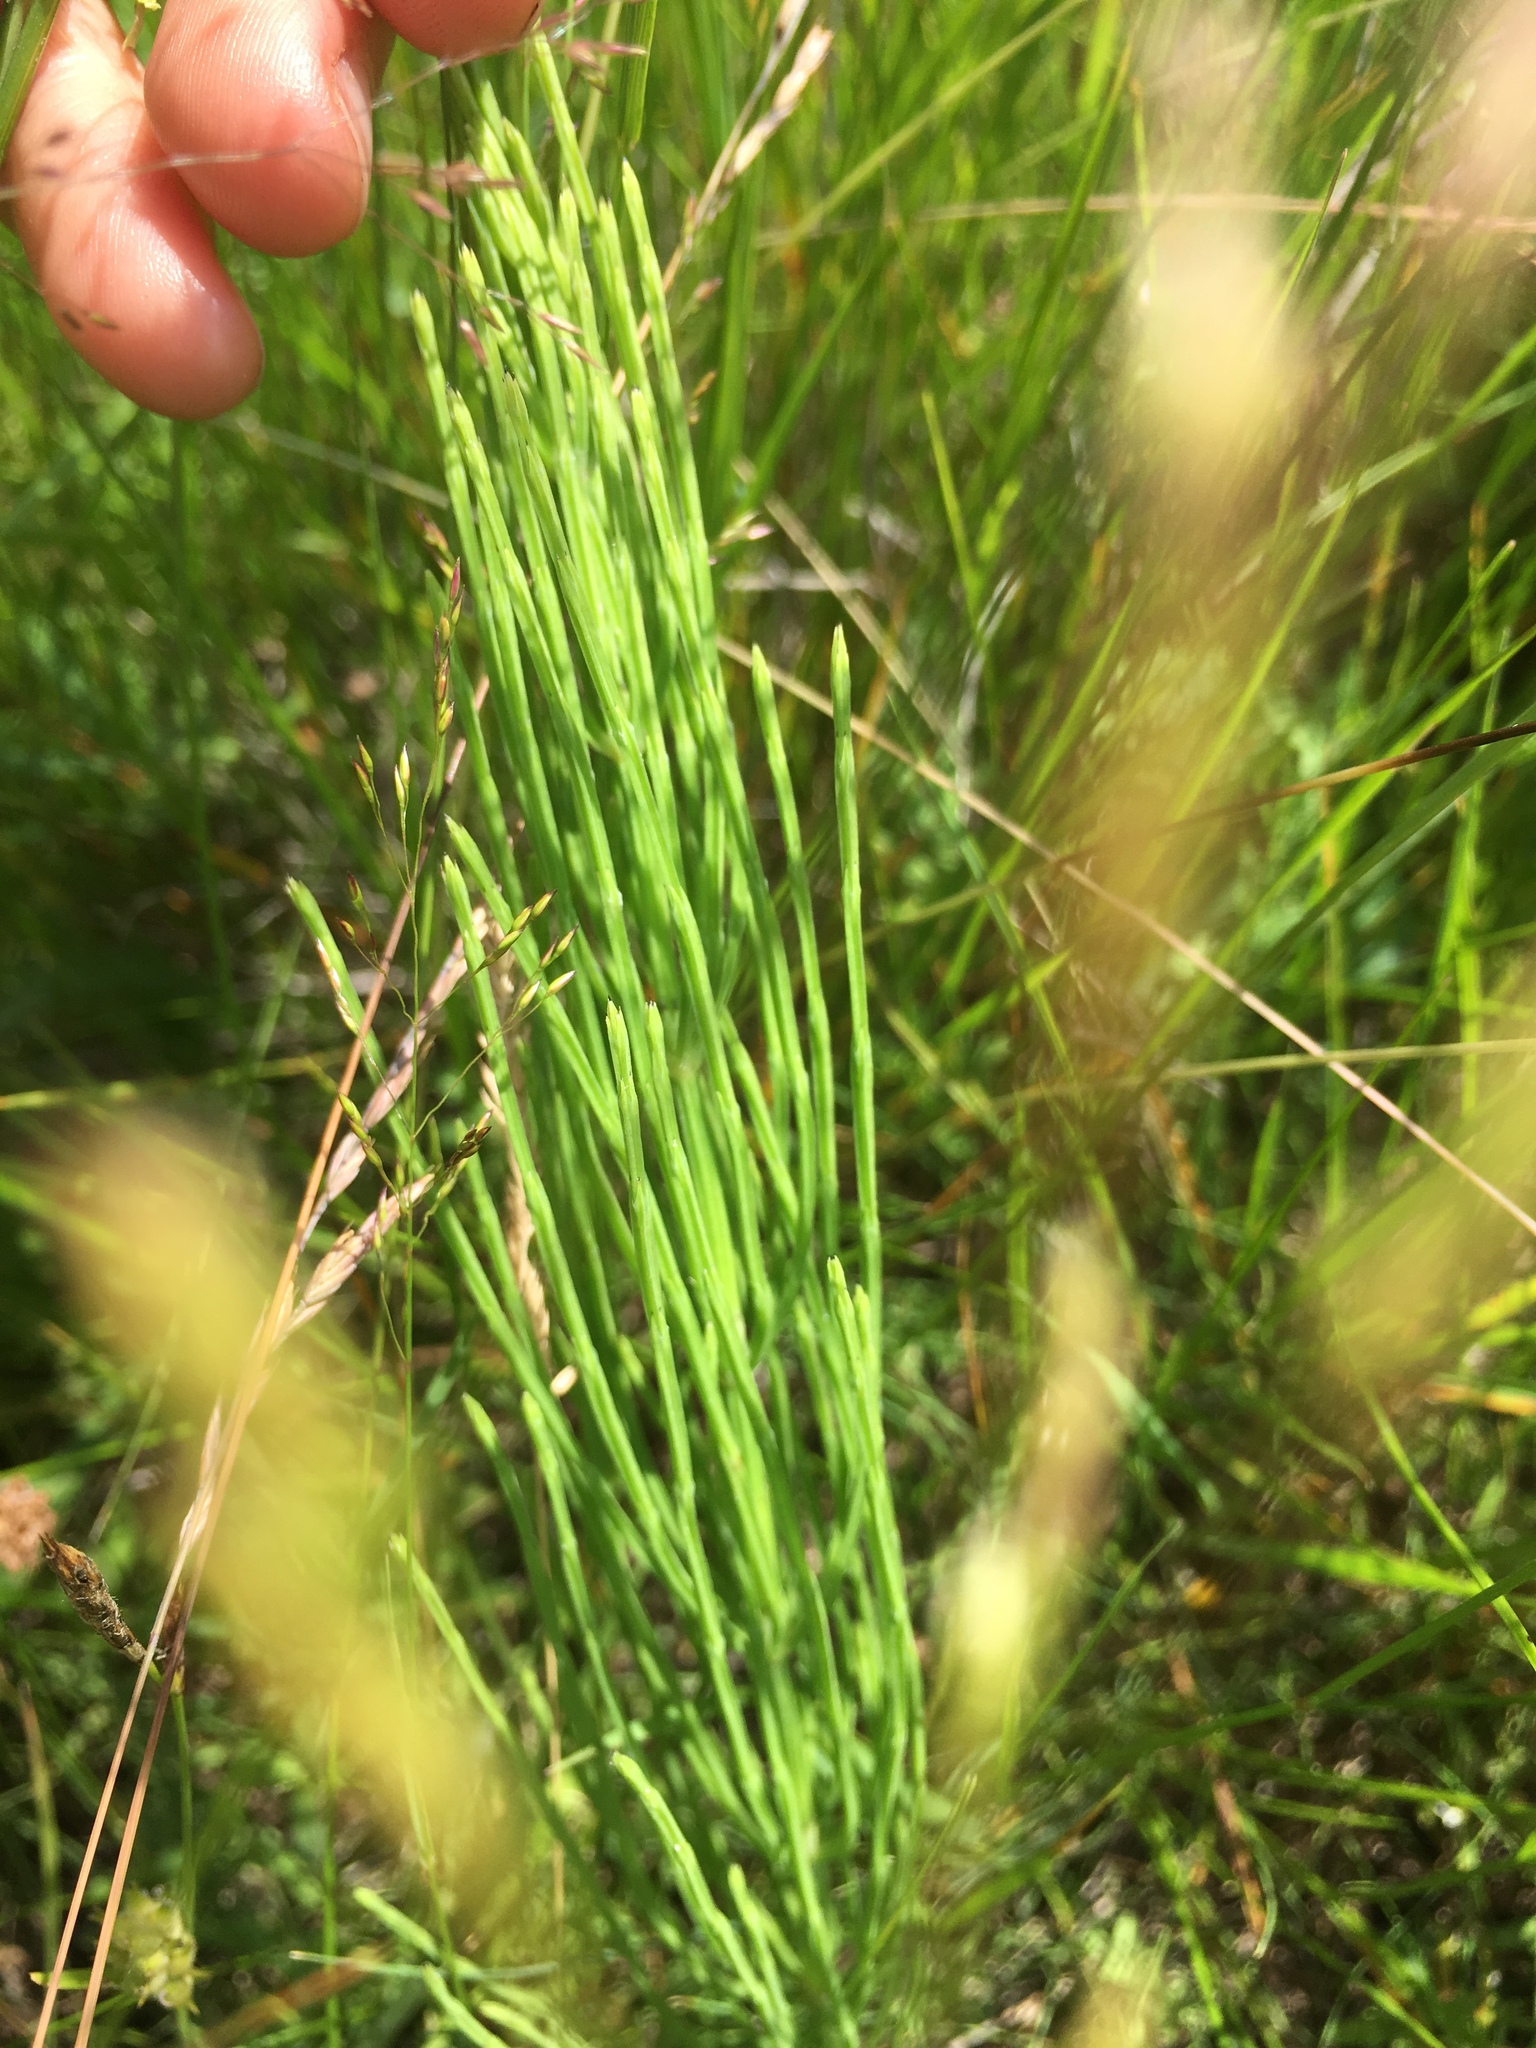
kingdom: Plantae
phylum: Tracheophyta
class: Polypodiopsida
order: Equisetales
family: Equisetaceae
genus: Equisetum
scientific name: Equisetum arvense
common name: Field horsetail
